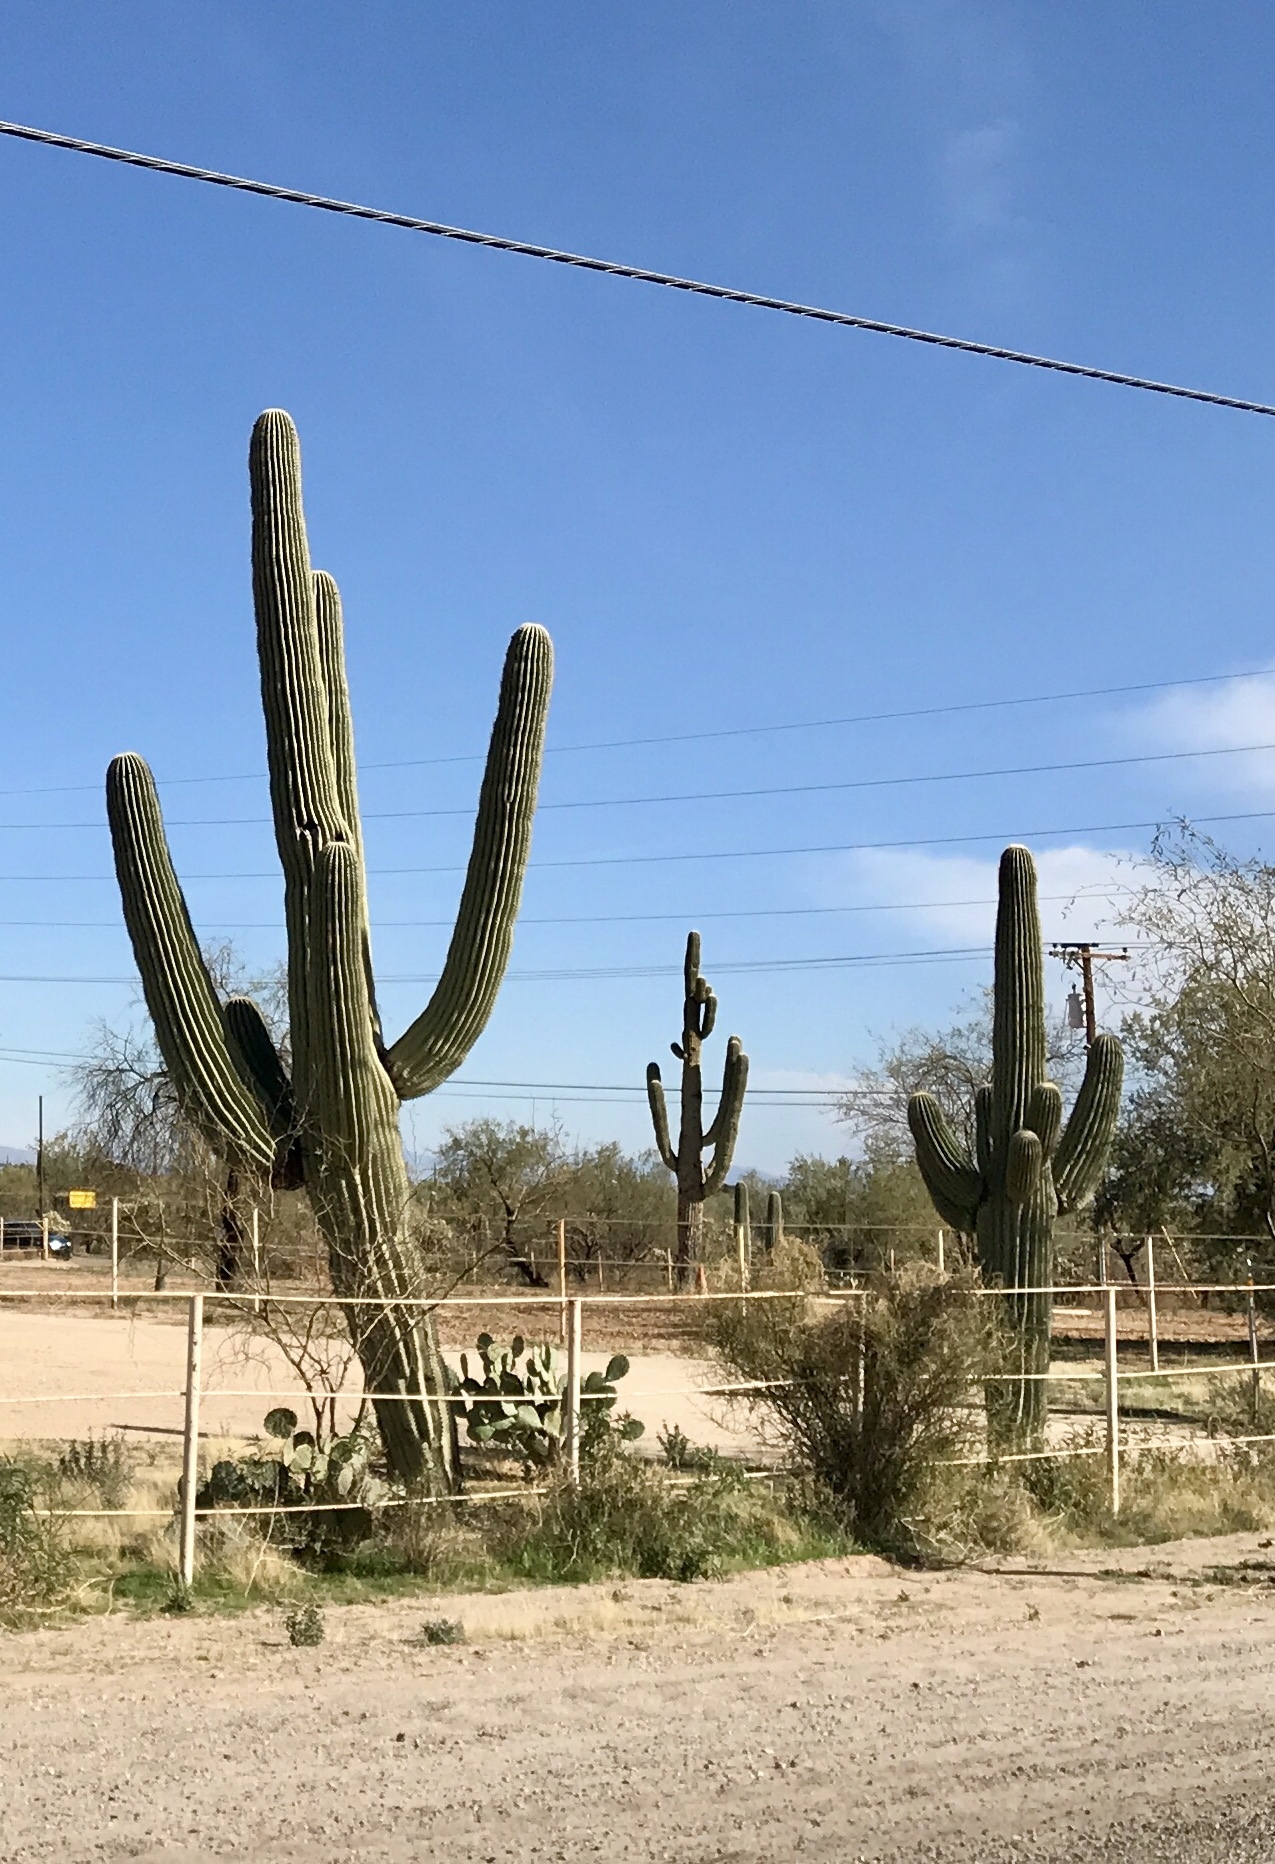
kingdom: Plantae
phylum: Tracheophyta
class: Magnoliopsida
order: Caryophyllales
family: Cactaceae
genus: Carnegiea
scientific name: Carnegiea gigantea
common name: Saguaro
